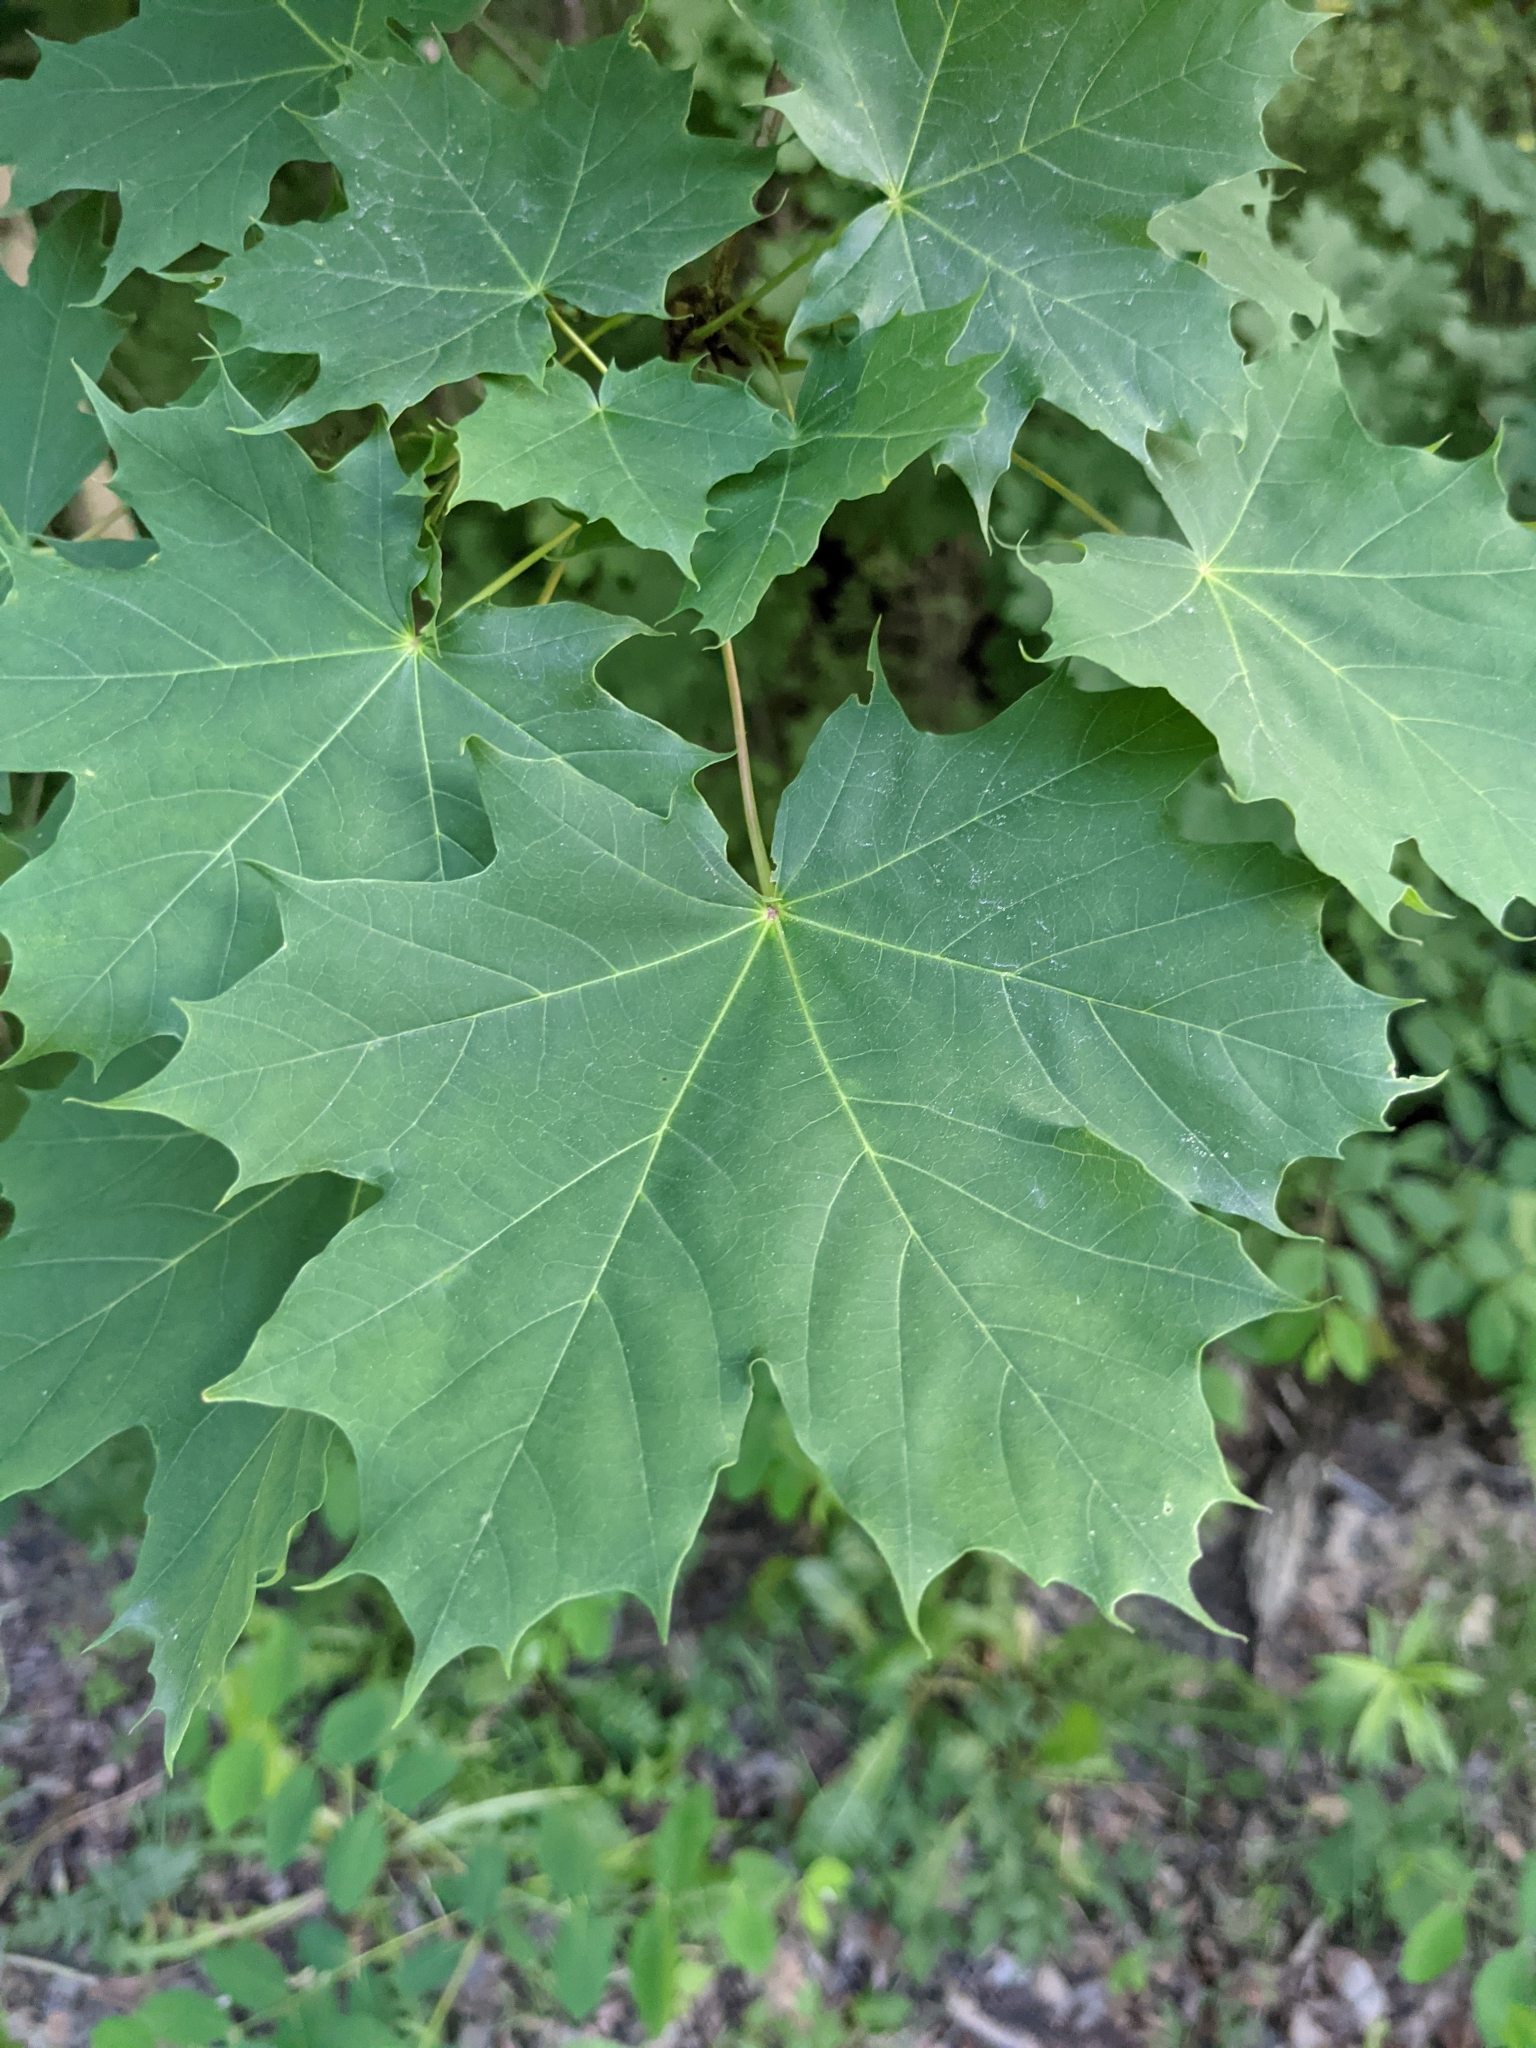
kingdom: Plantae
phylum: Tracheophyta
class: Magnoliopsida
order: Sapindales
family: Sapindaceae
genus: Acer
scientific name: Acer platanoides
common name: Norway maple
